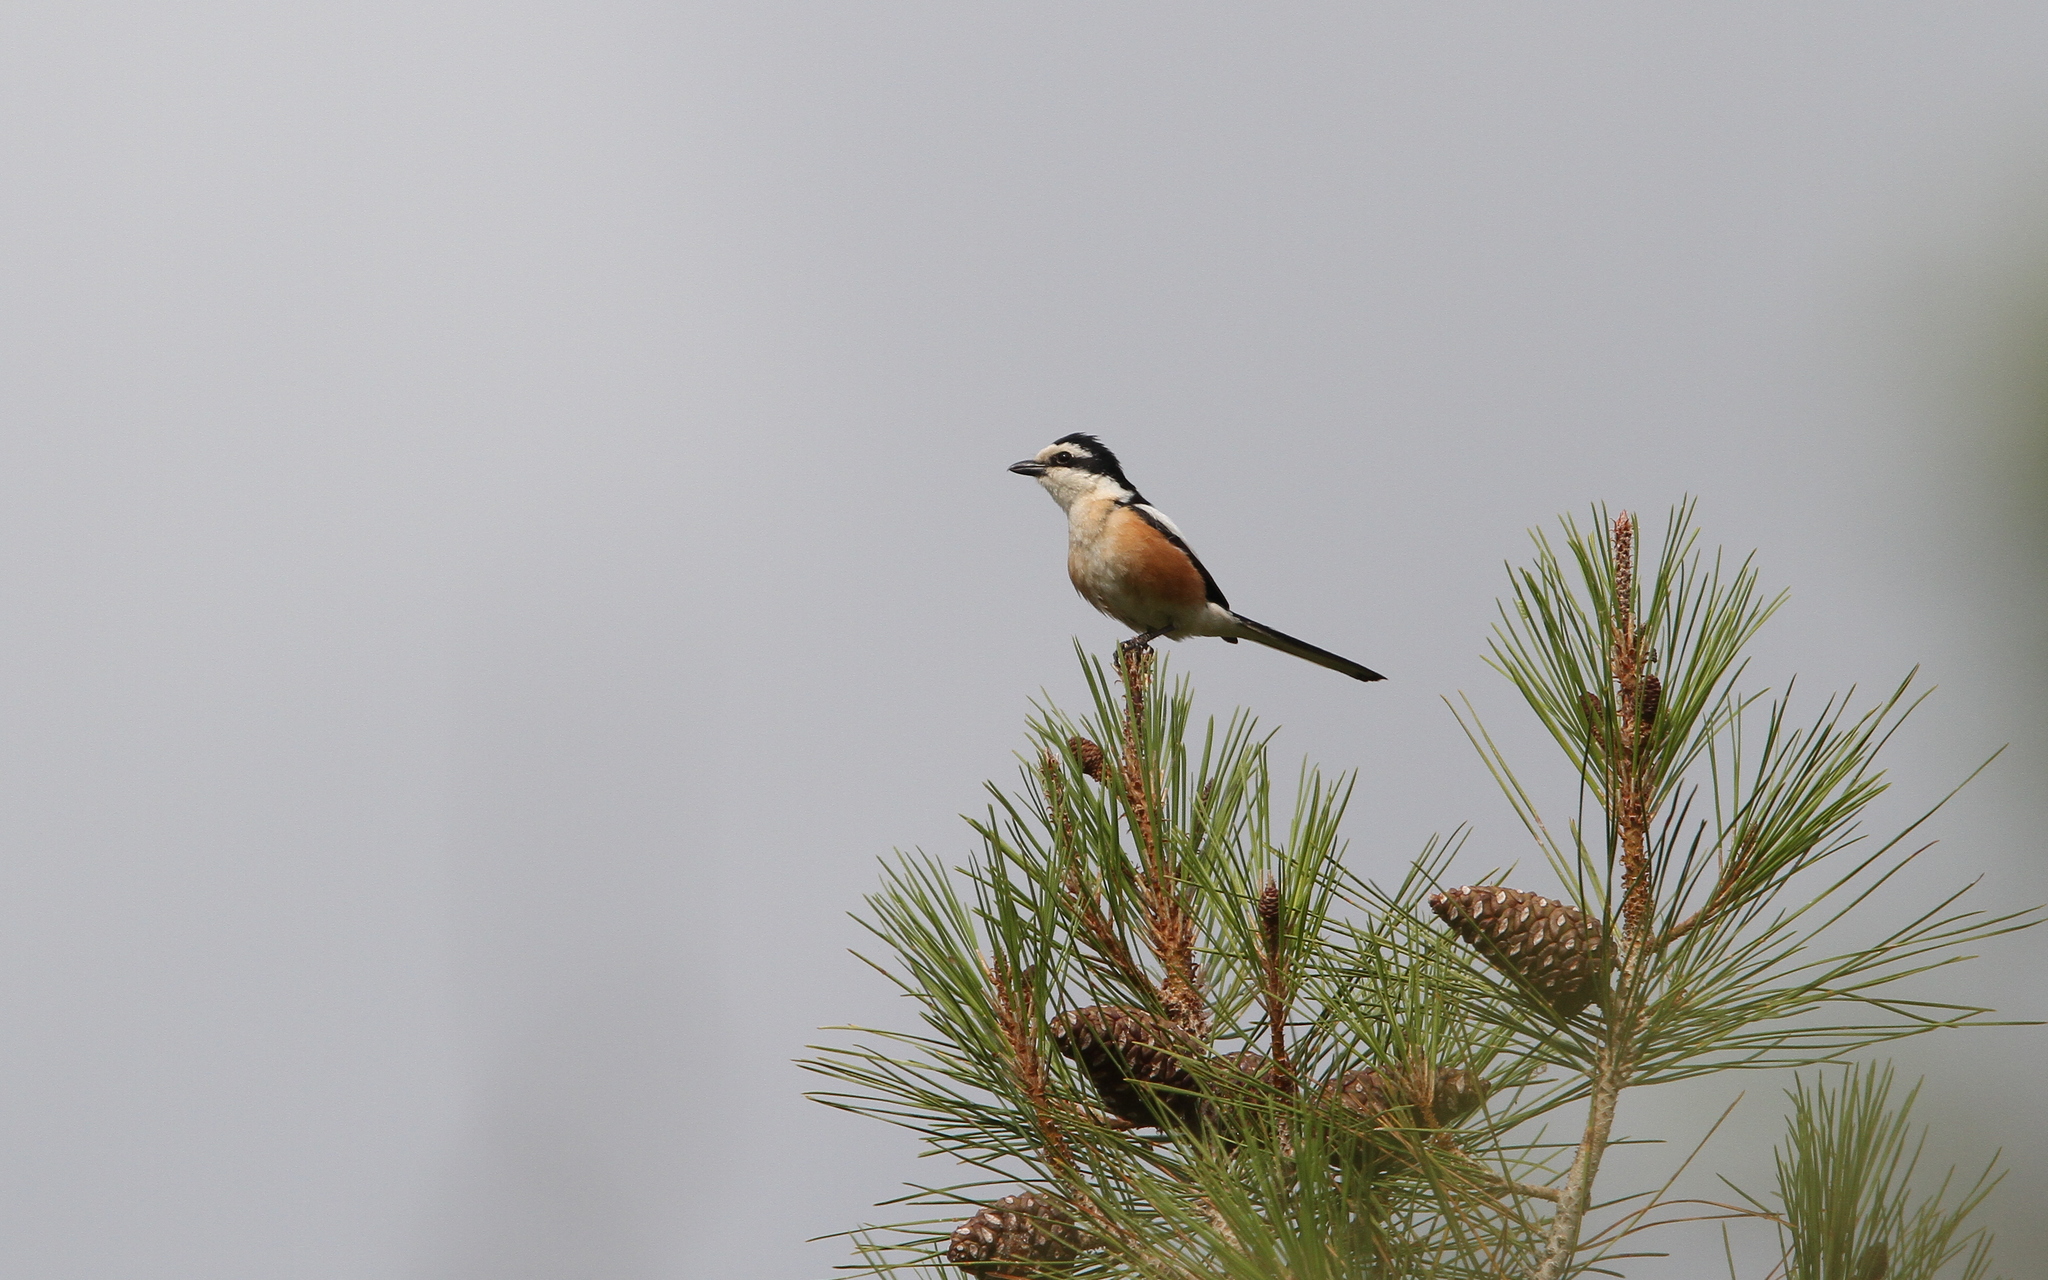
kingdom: Animalia
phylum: Chordata
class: Aves
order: Passeriformes
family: Laniidae
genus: Lanius
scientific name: Lanius nubicus
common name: Masked shrike
